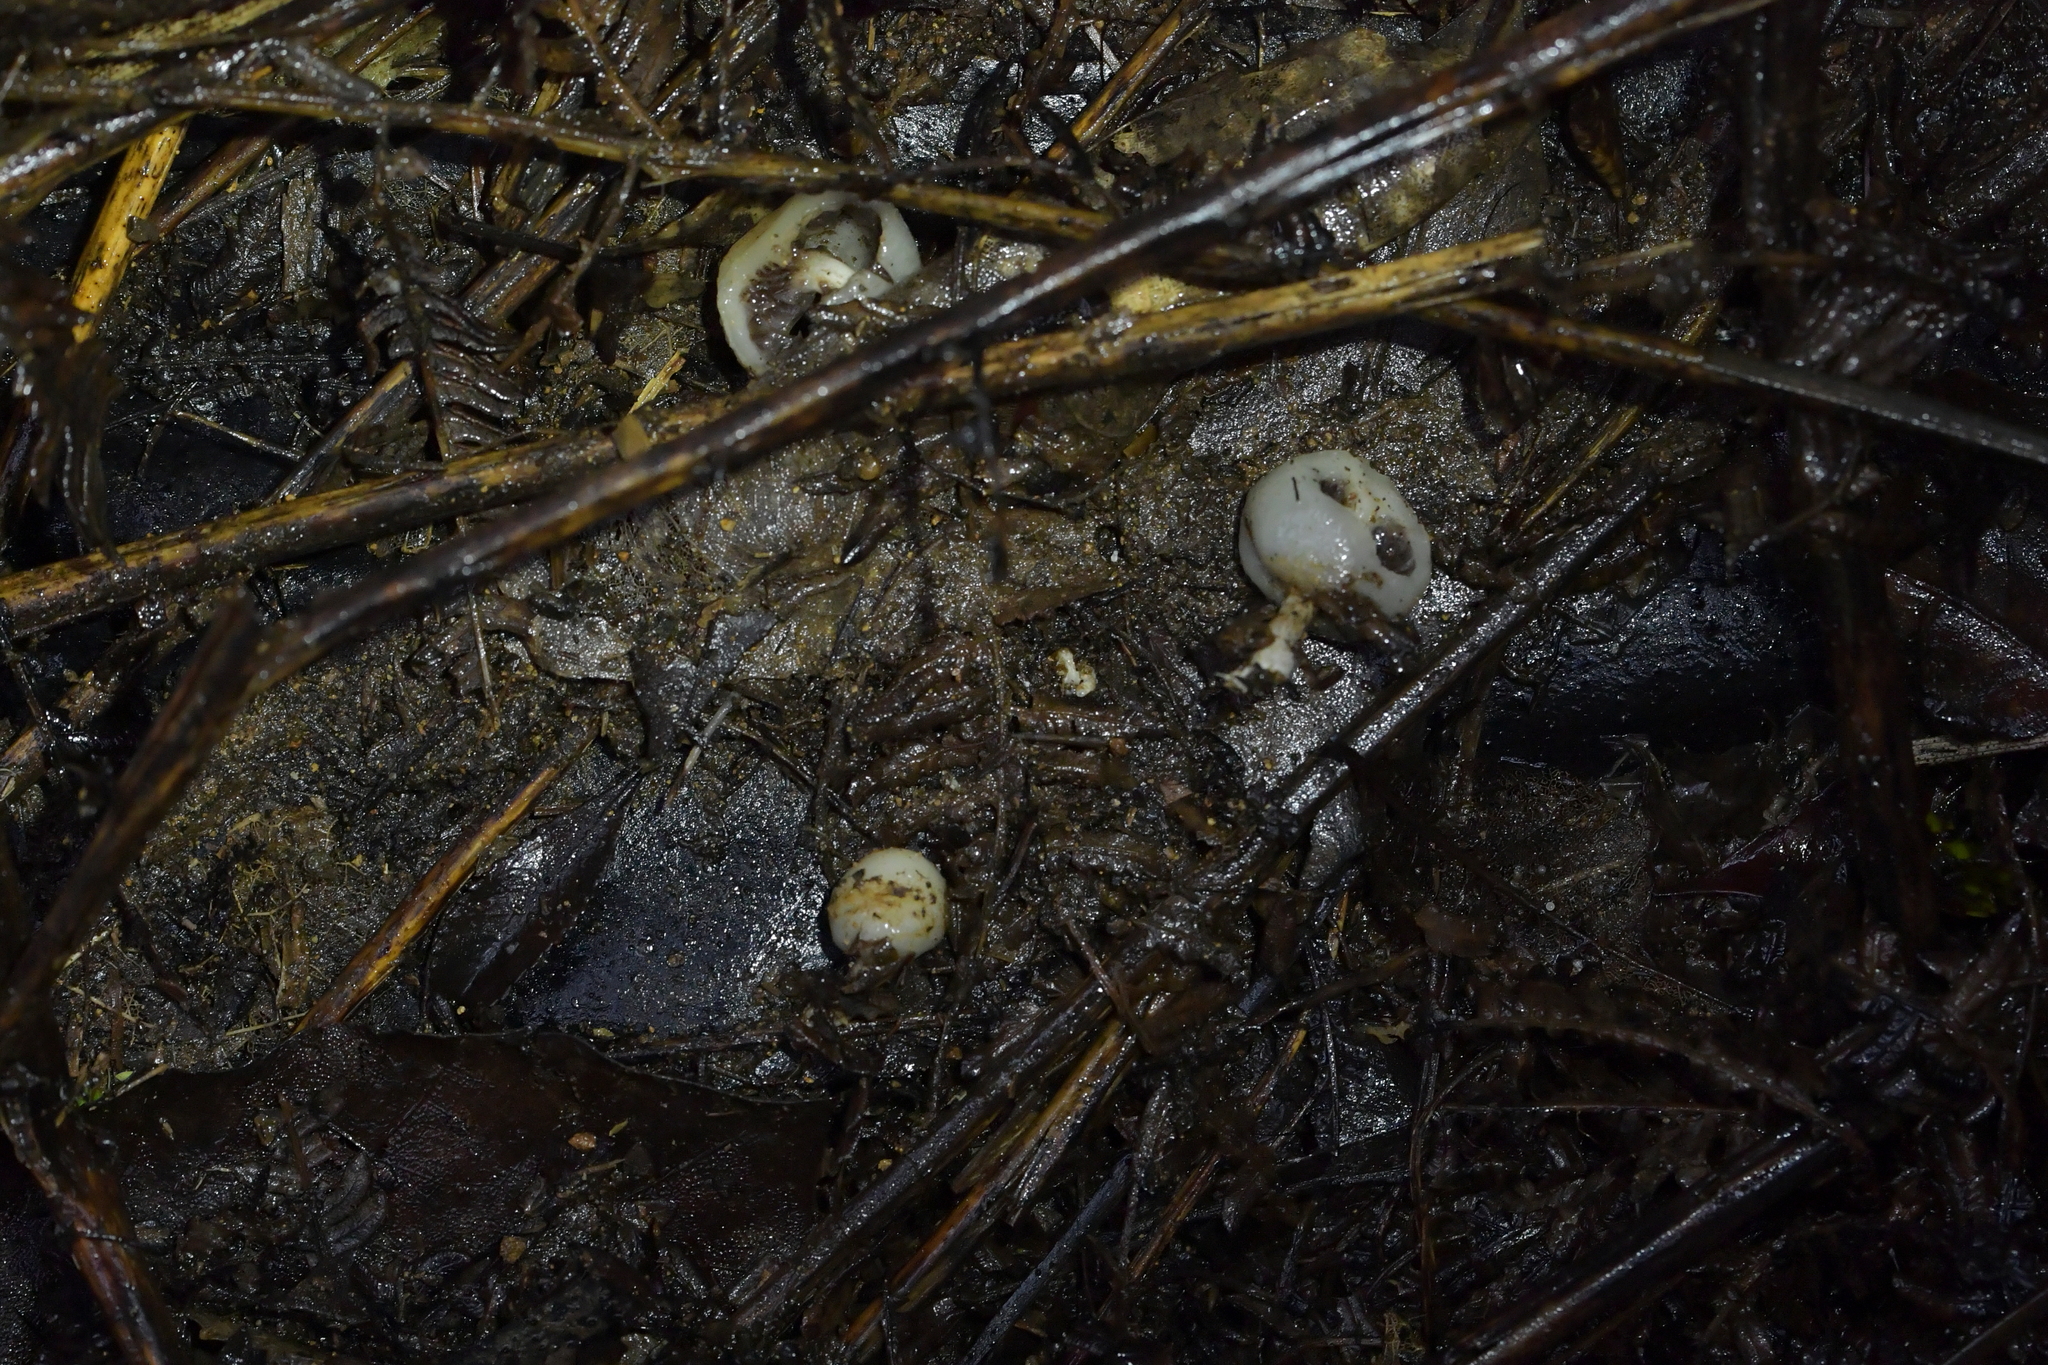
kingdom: Fungi
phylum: Basidiomycota
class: Agaricomycetes
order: Agaricales
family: Hymenogastraceae
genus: Psilocybe
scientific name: Psilocybe weraroa
